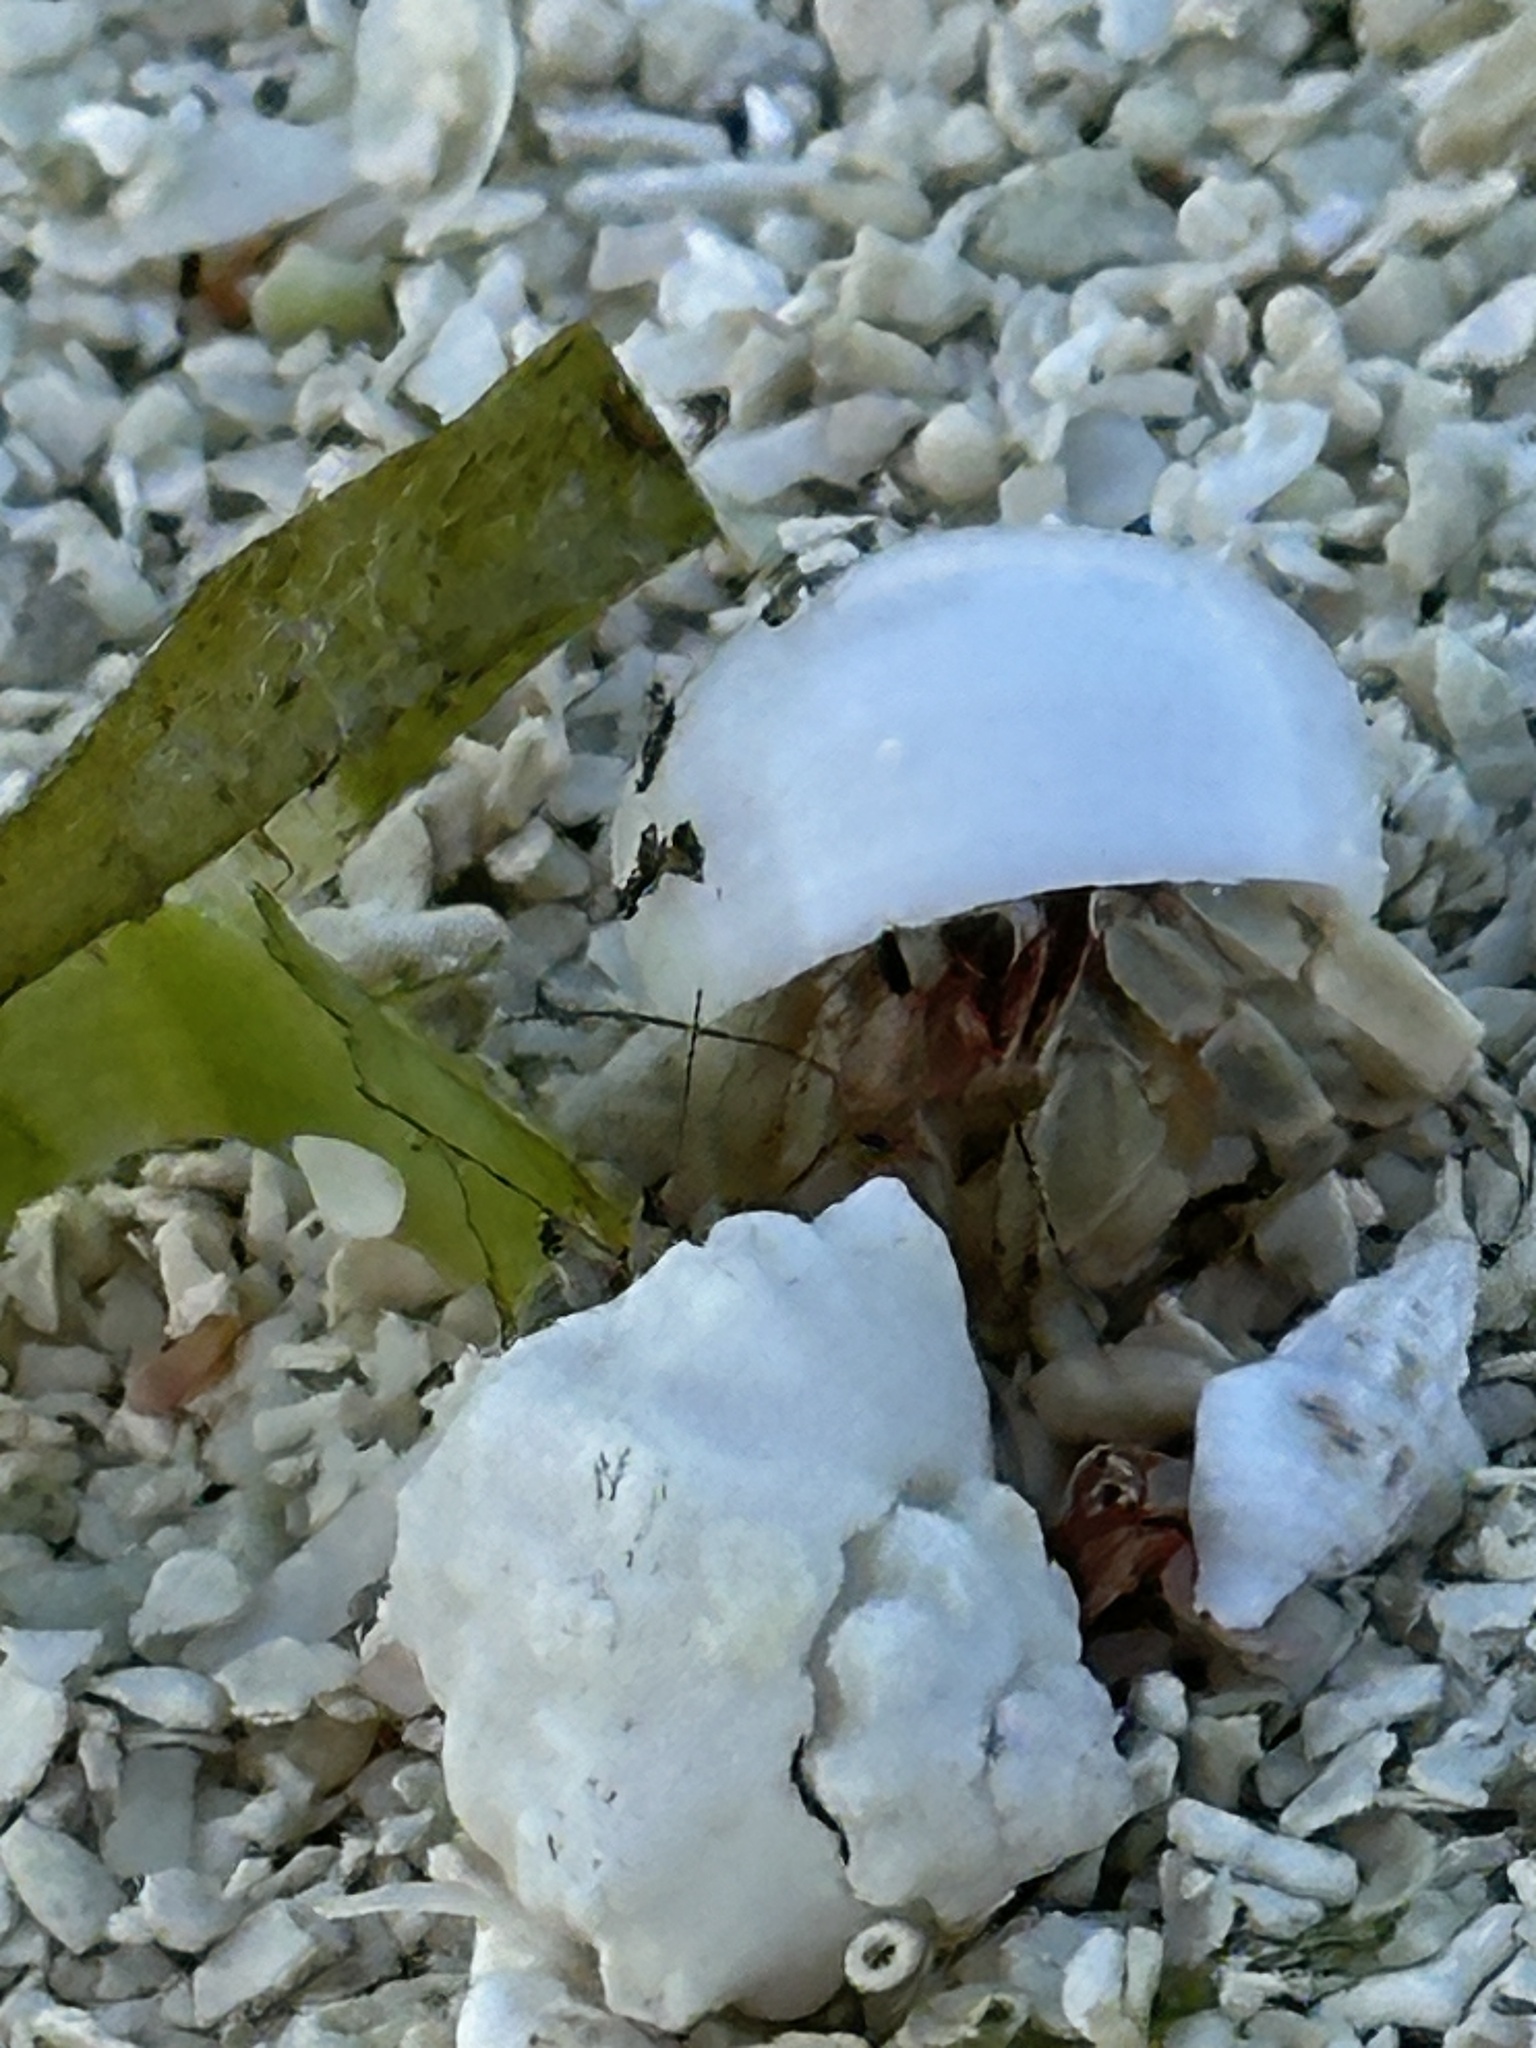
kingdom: Animalia
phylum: Arthropoda
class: Malacostraca
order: Decapoda
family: Coenobitidae
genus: Coenobita
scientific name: Coenobita rugosus
